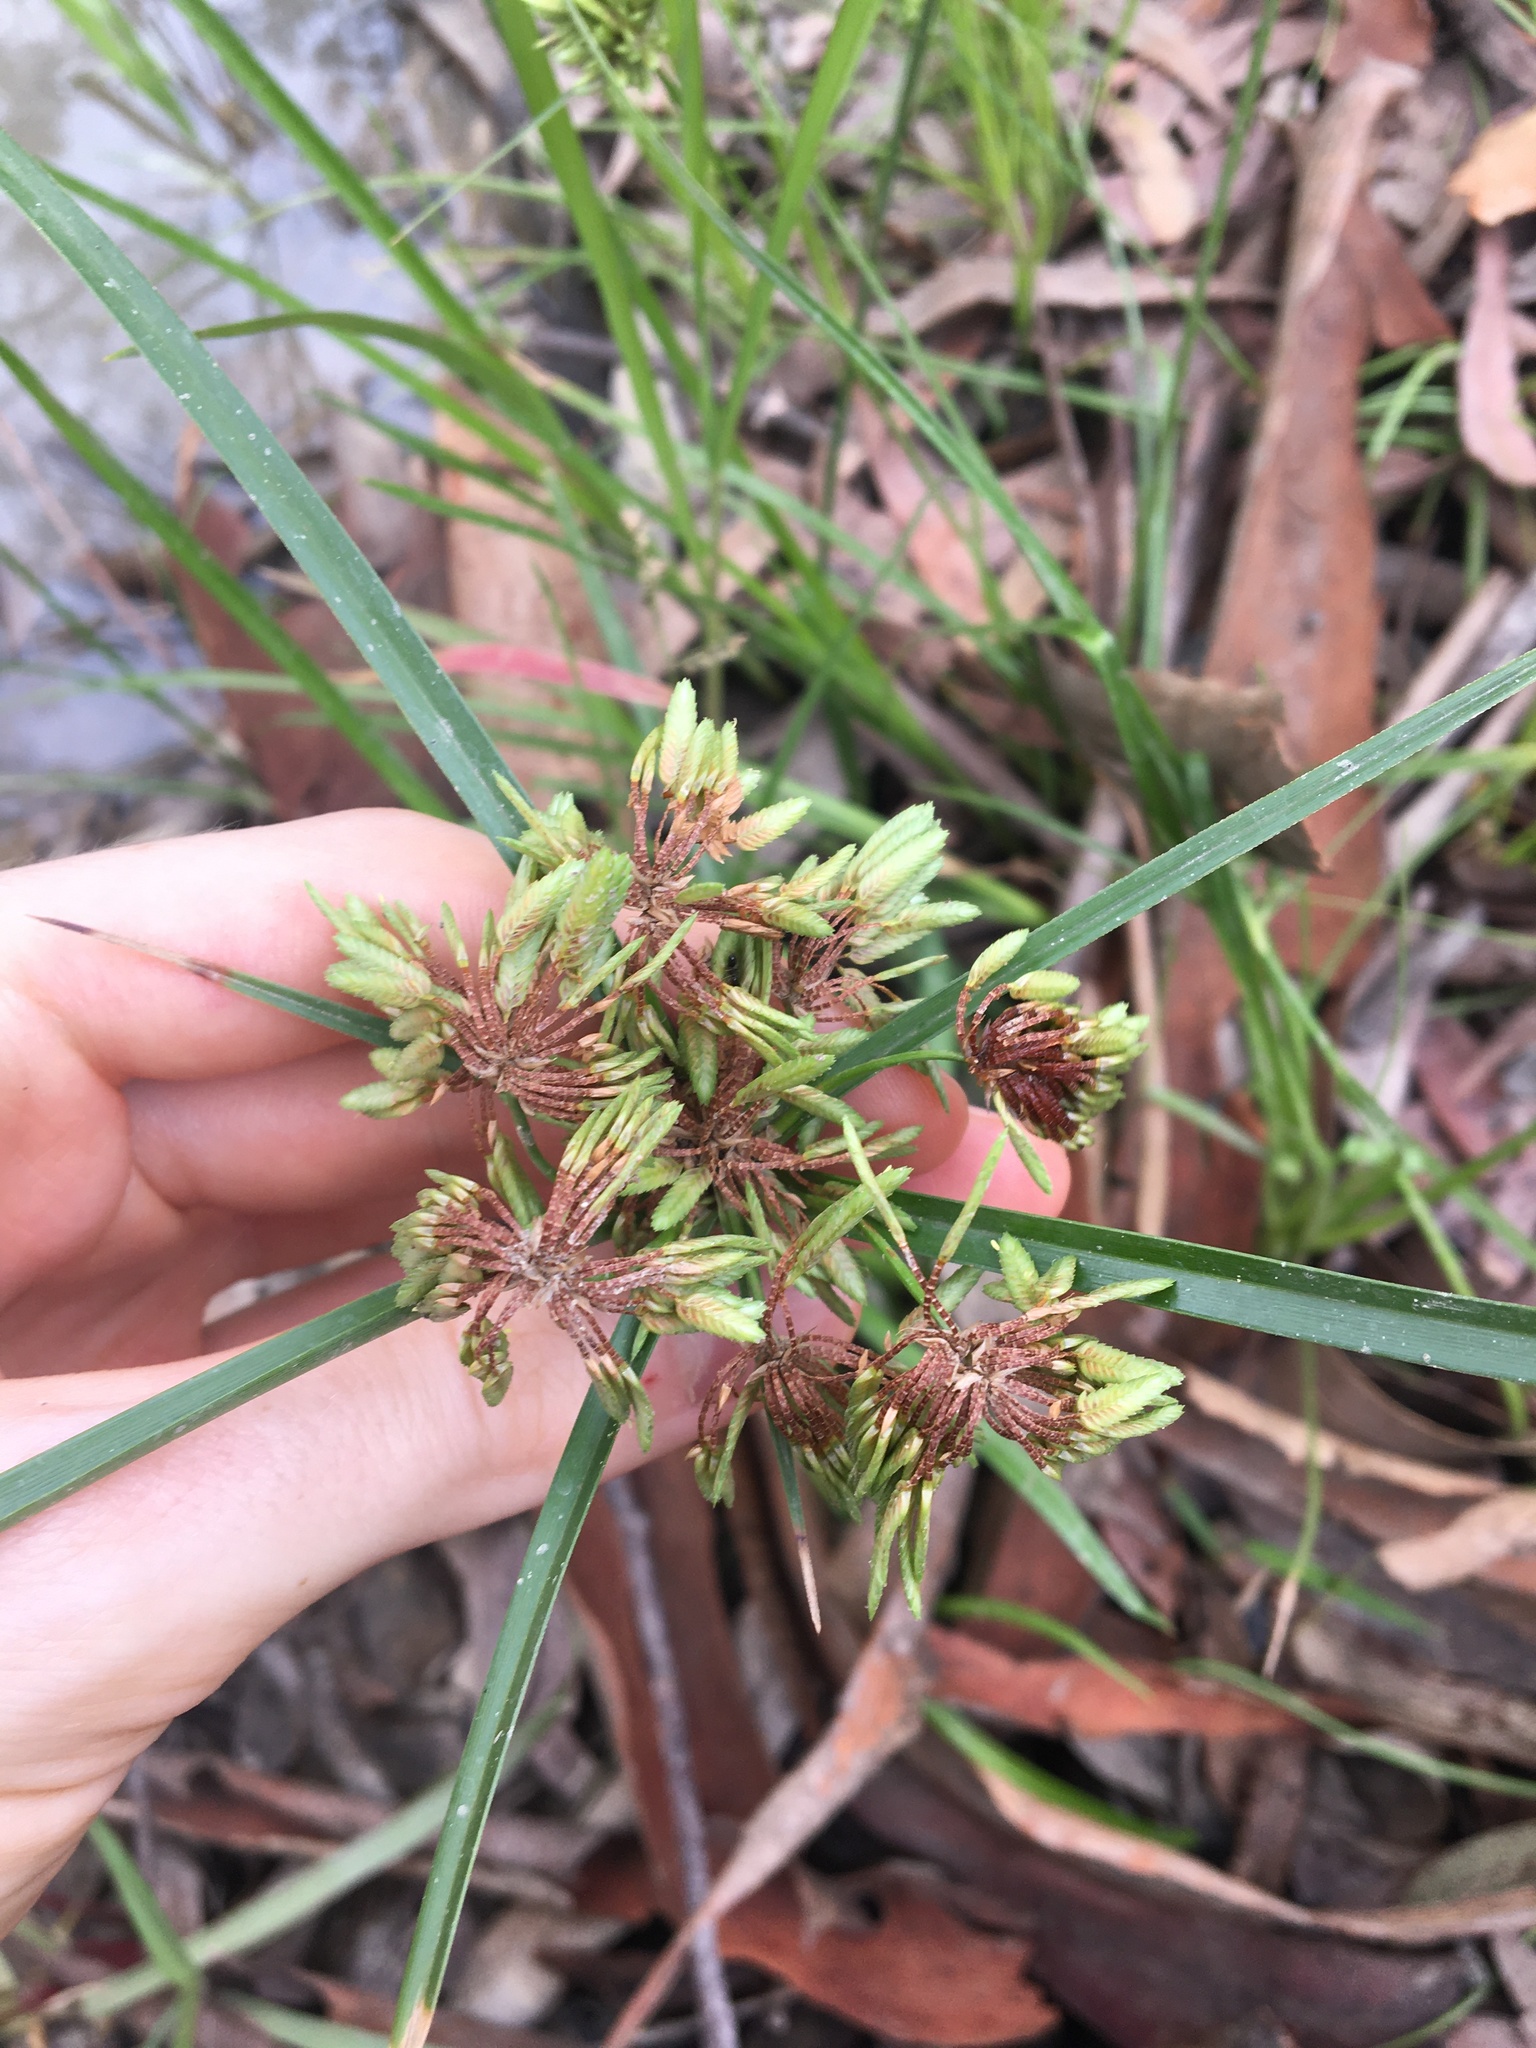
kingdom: Plantae
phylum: Tracheophyta
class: Liliopsida
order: Poales
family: Cyperaceae
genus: Cyperus
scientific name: Cyperus eragrostis
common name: Tall flatsedge
